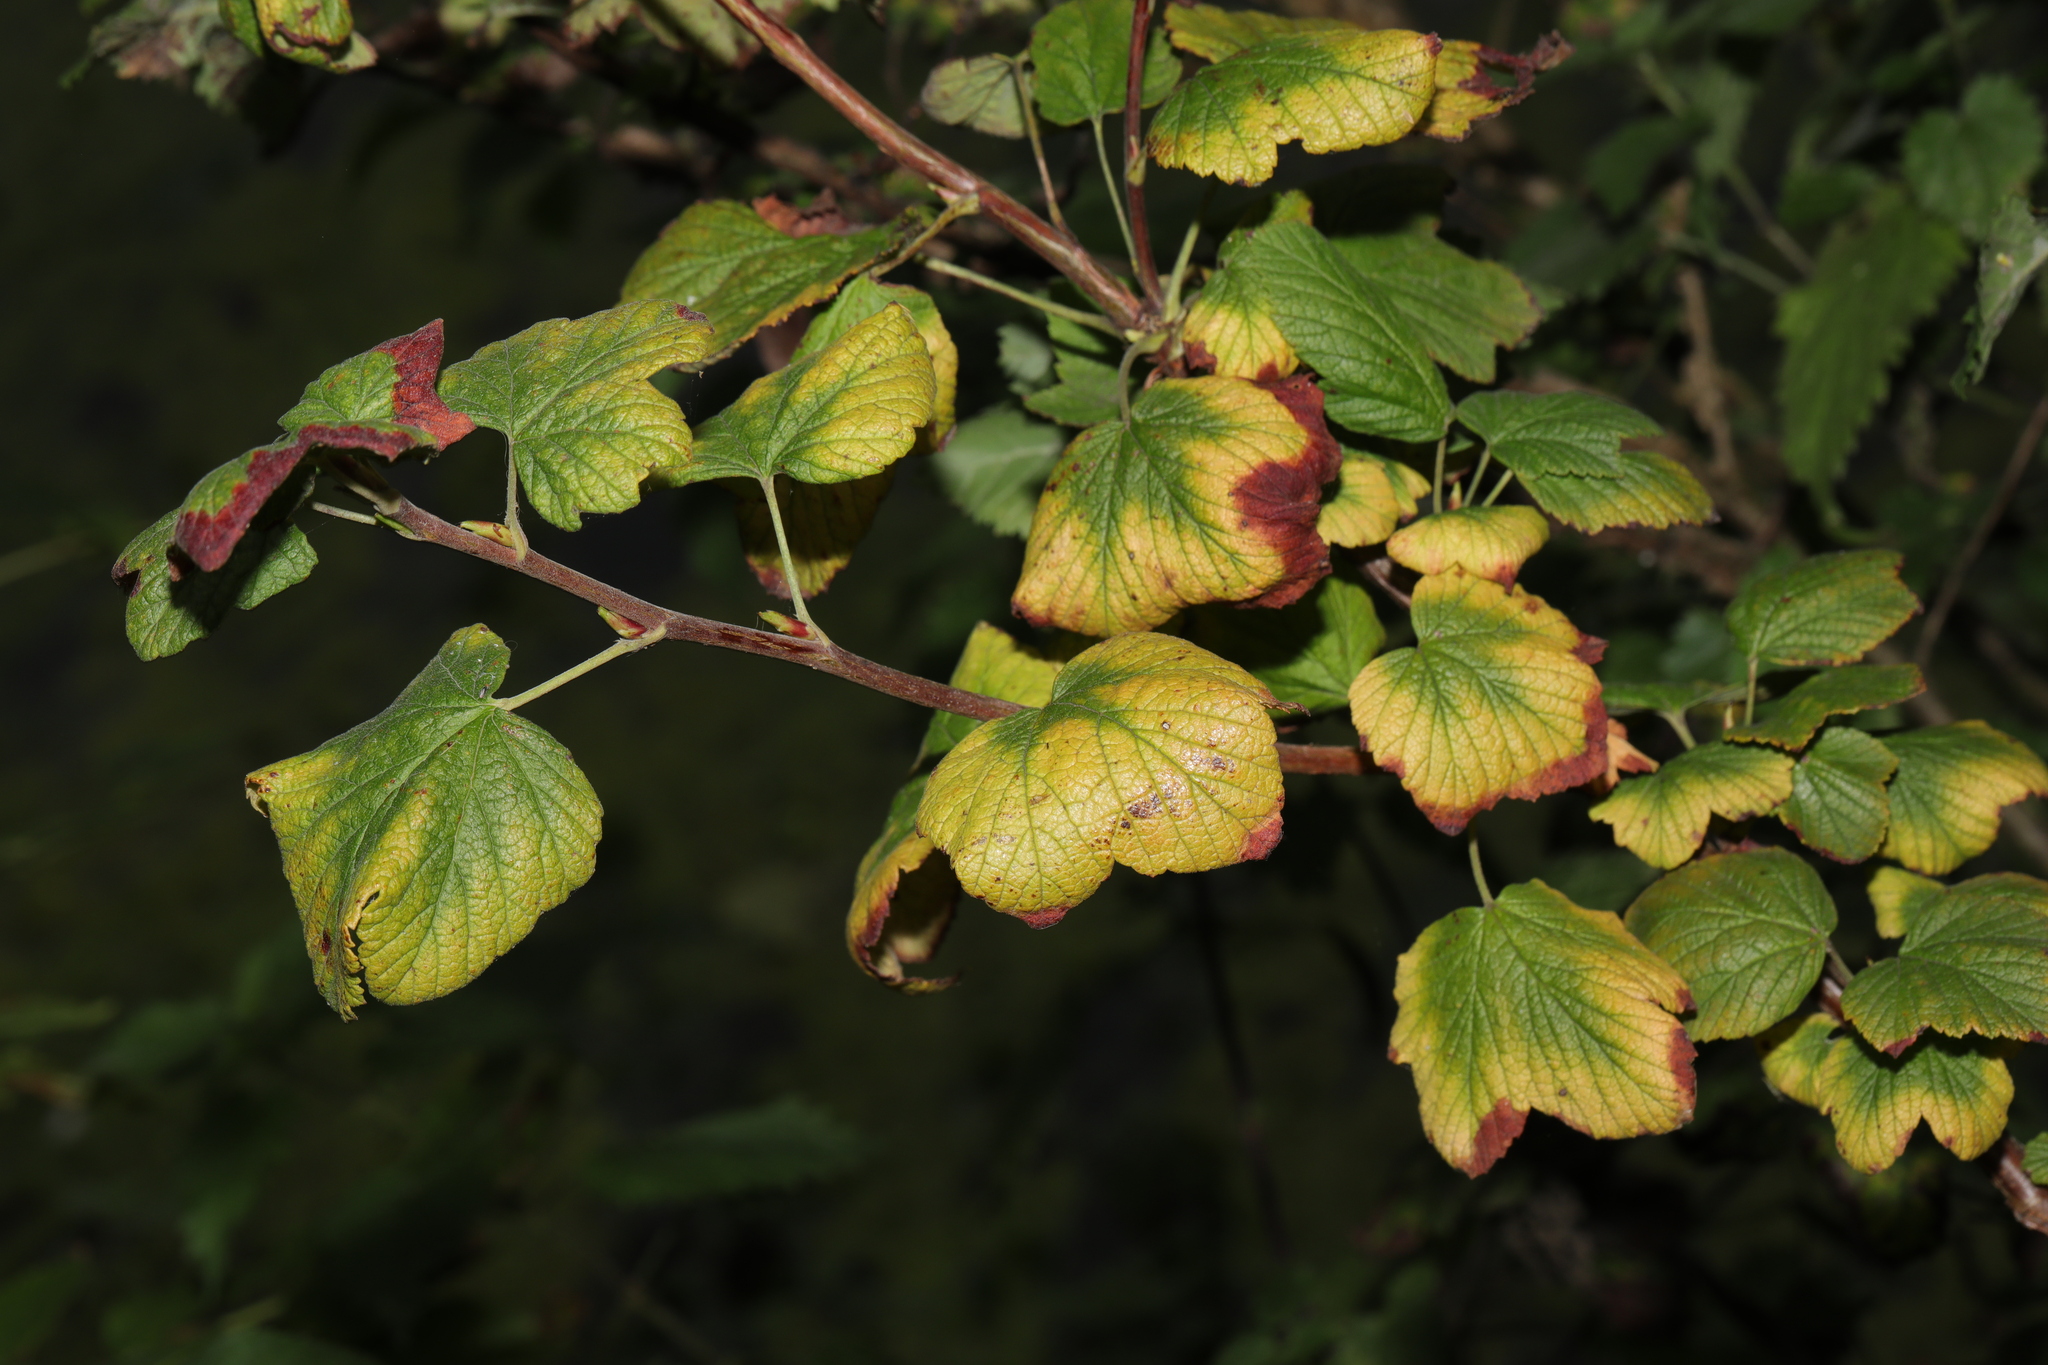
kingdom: Plantae
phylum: Tracheophyta
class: Magnoliopsida
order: Saxifragales
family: Grossulariaceae
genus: Ribes
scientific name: Ribes sanguineum
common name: Flowering currant
